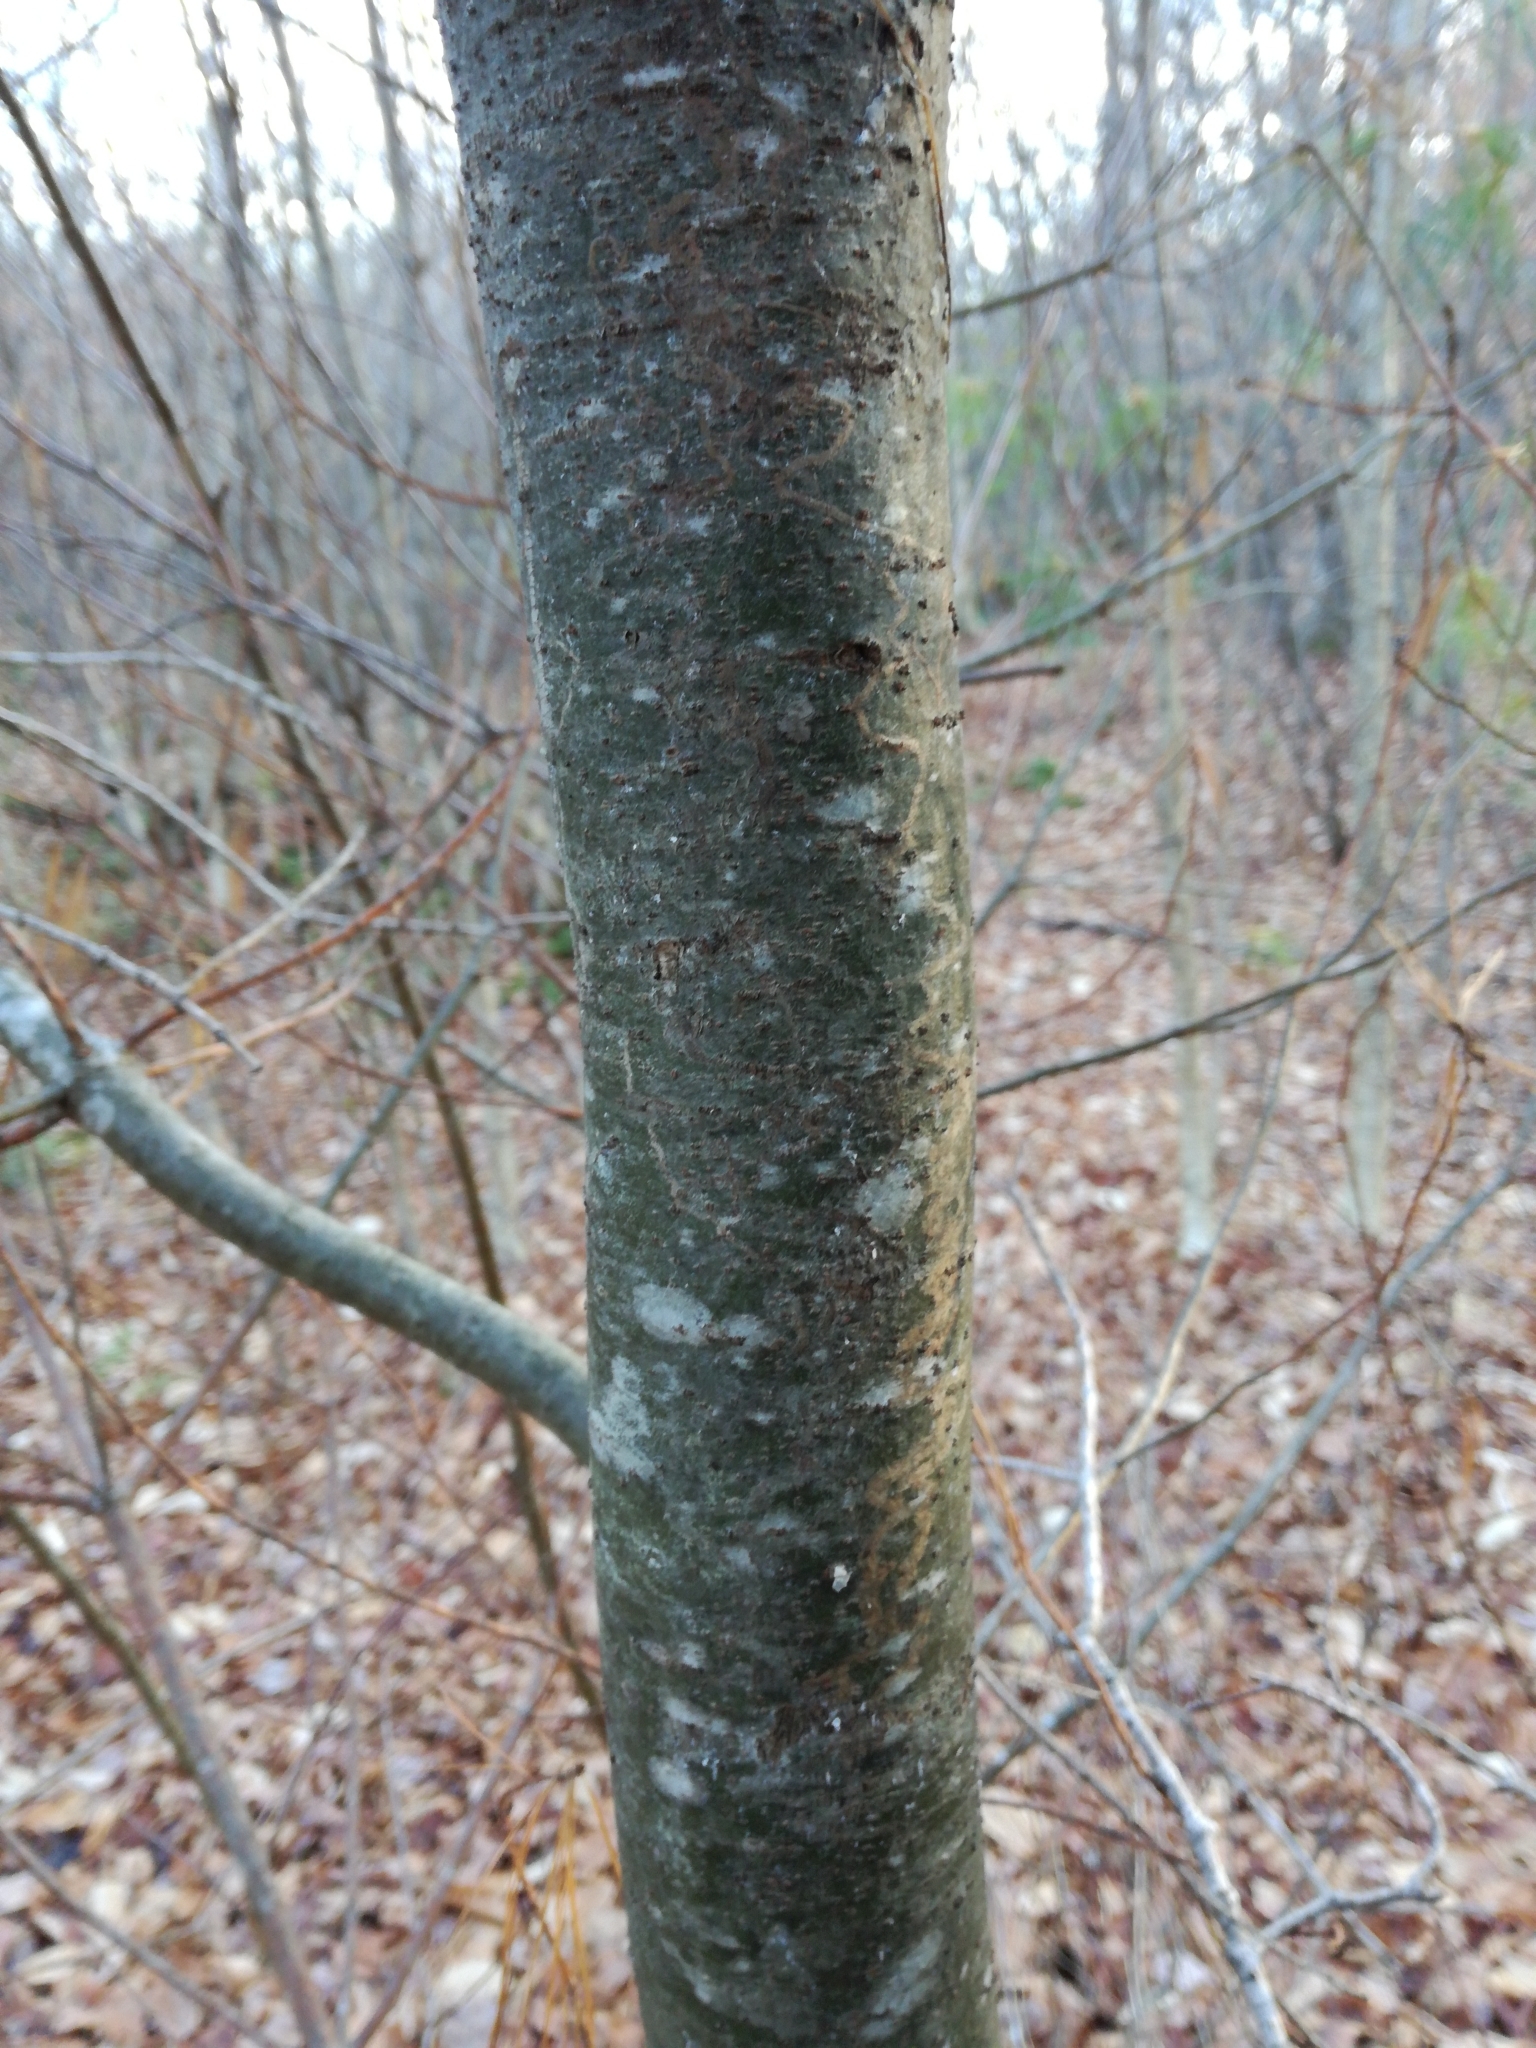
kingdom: Plantae
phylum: Tracheophyta
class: Pinopsida
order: Pinales
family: Pinaceae
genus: Pinus
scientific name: Pinus strobus
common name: Weymouth pine
